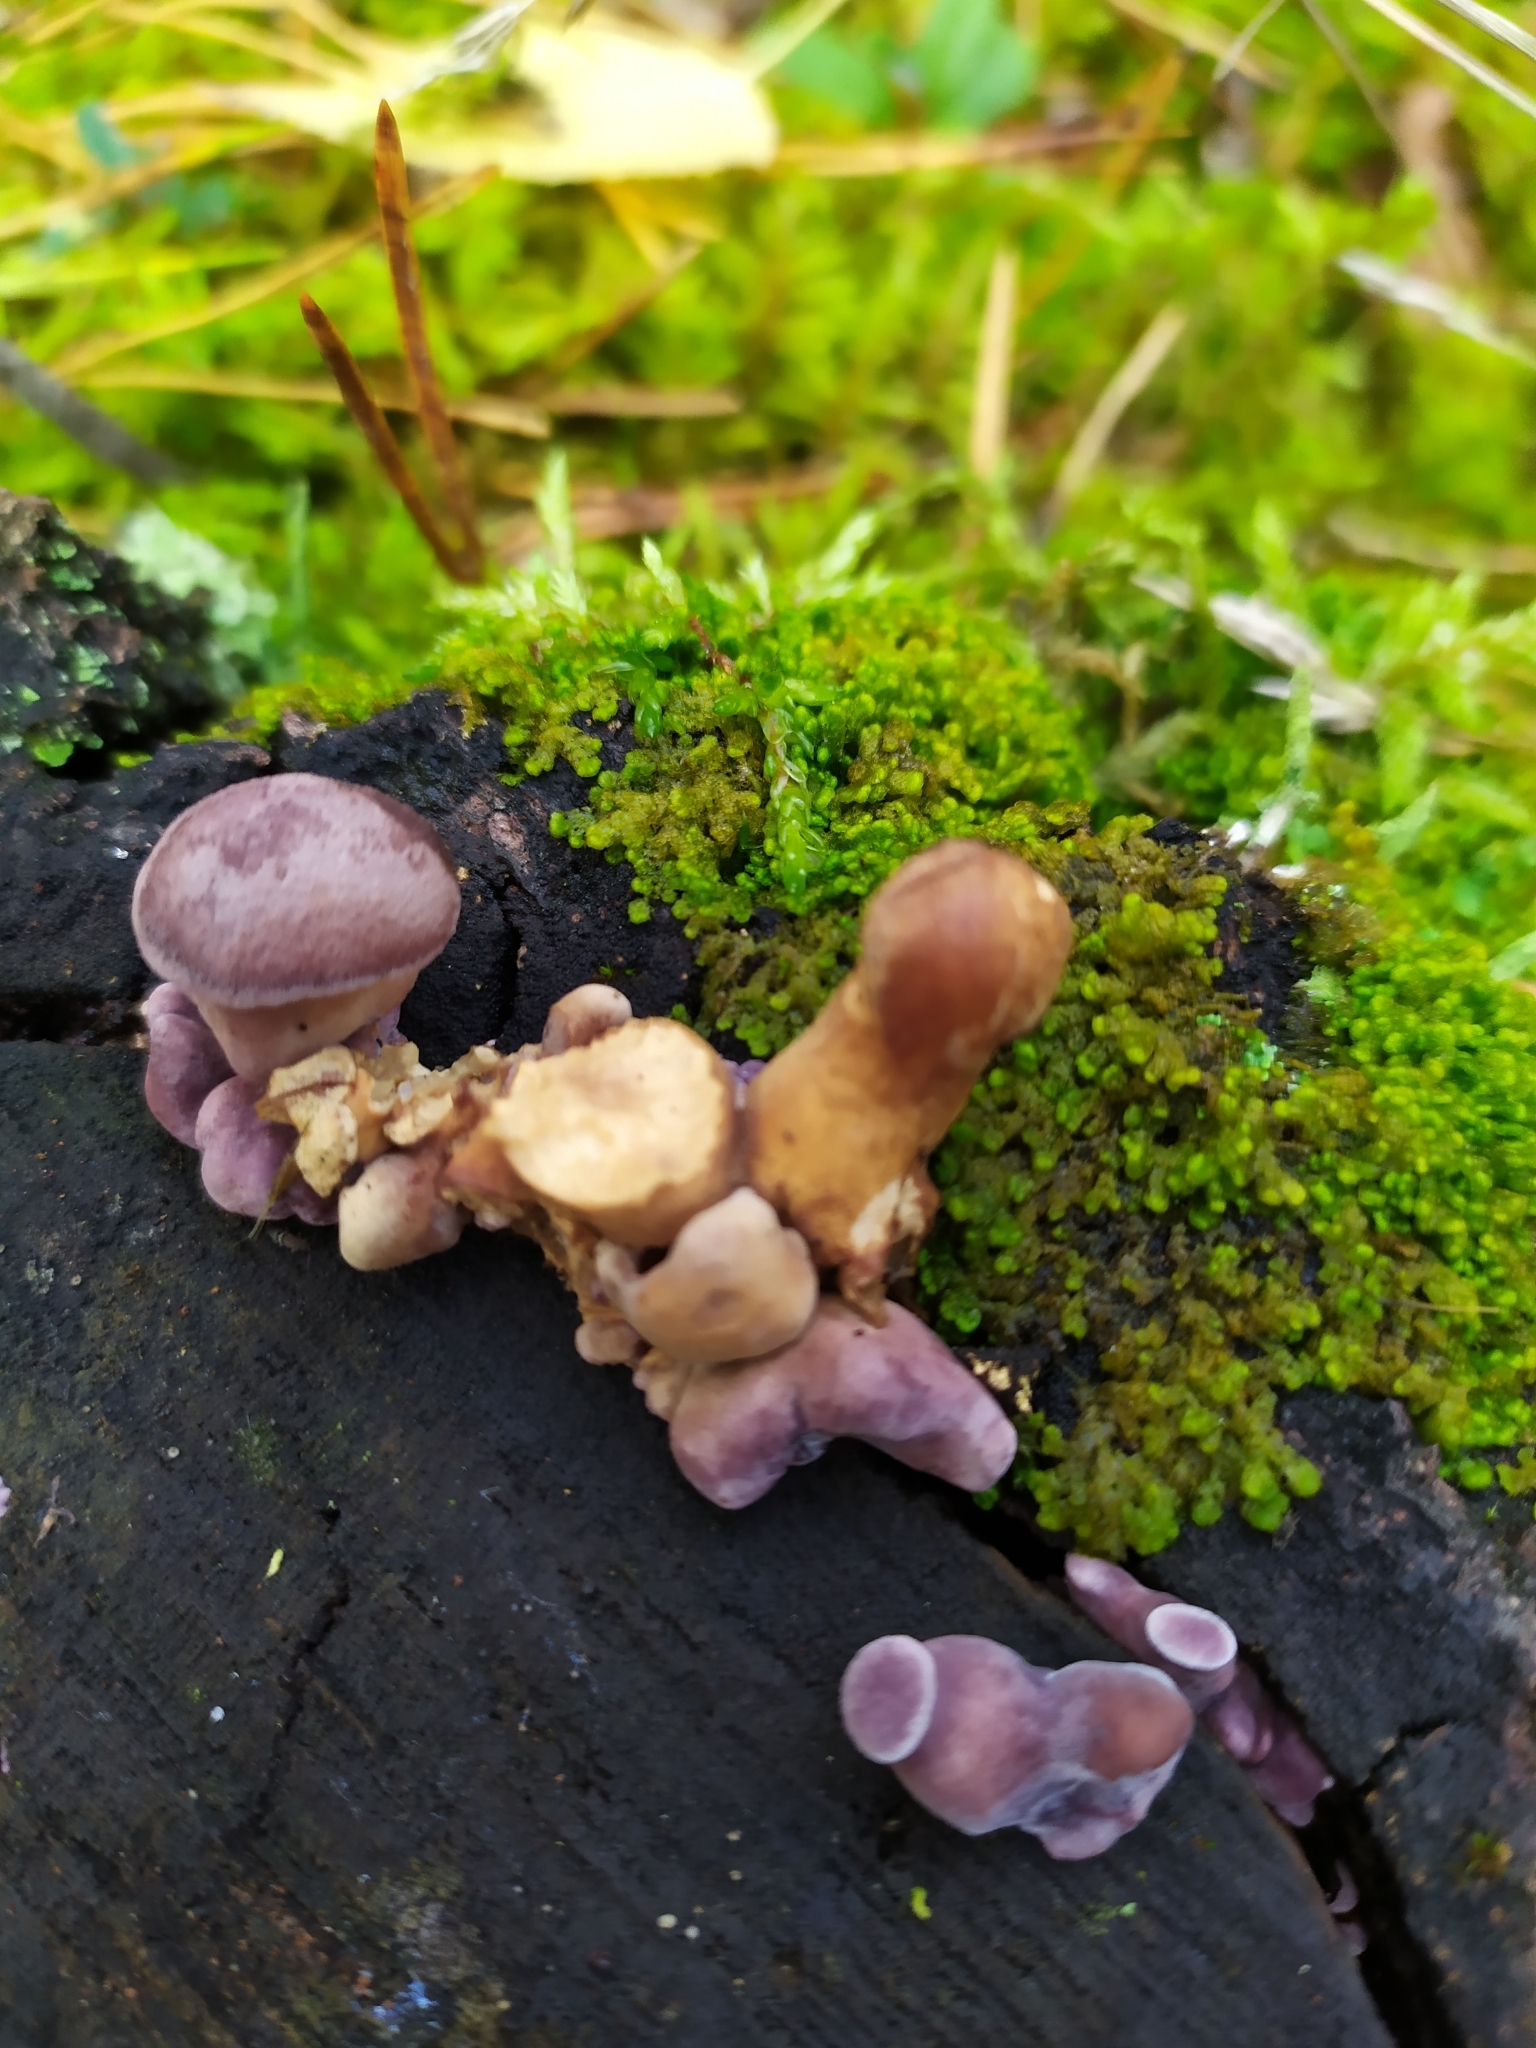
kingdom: Fungi
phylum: Basidiomycota
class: Agaricomycetes
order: Polyporales
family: Panaceae
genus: Panus
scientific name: Panus conchatus
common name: Lilac oysterling
